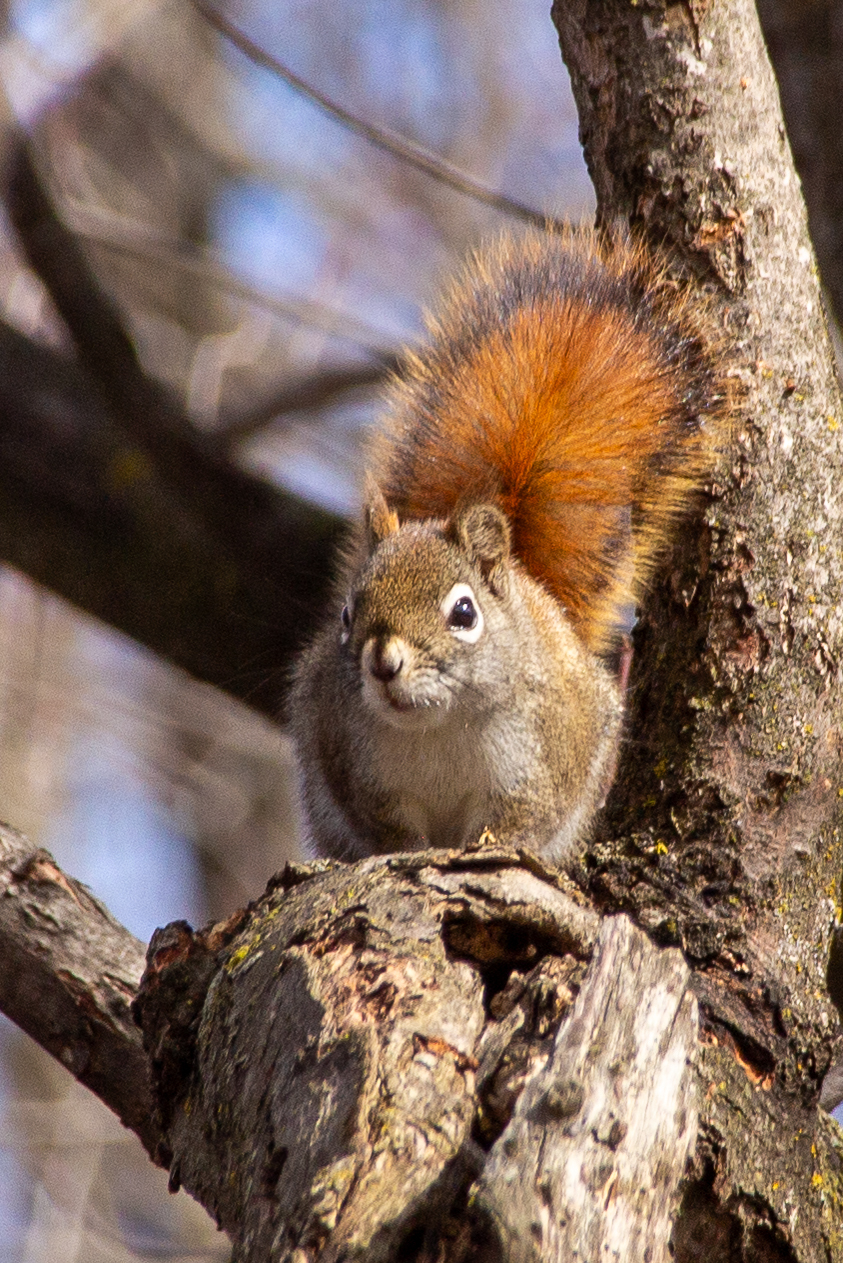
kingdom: Animalia
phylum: Chordata
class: Mammalia
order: Rodentia
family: Sciuridae
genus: Tamiasciurus
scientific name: Tamiasciurus hudsonicus
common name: Red squirrel
